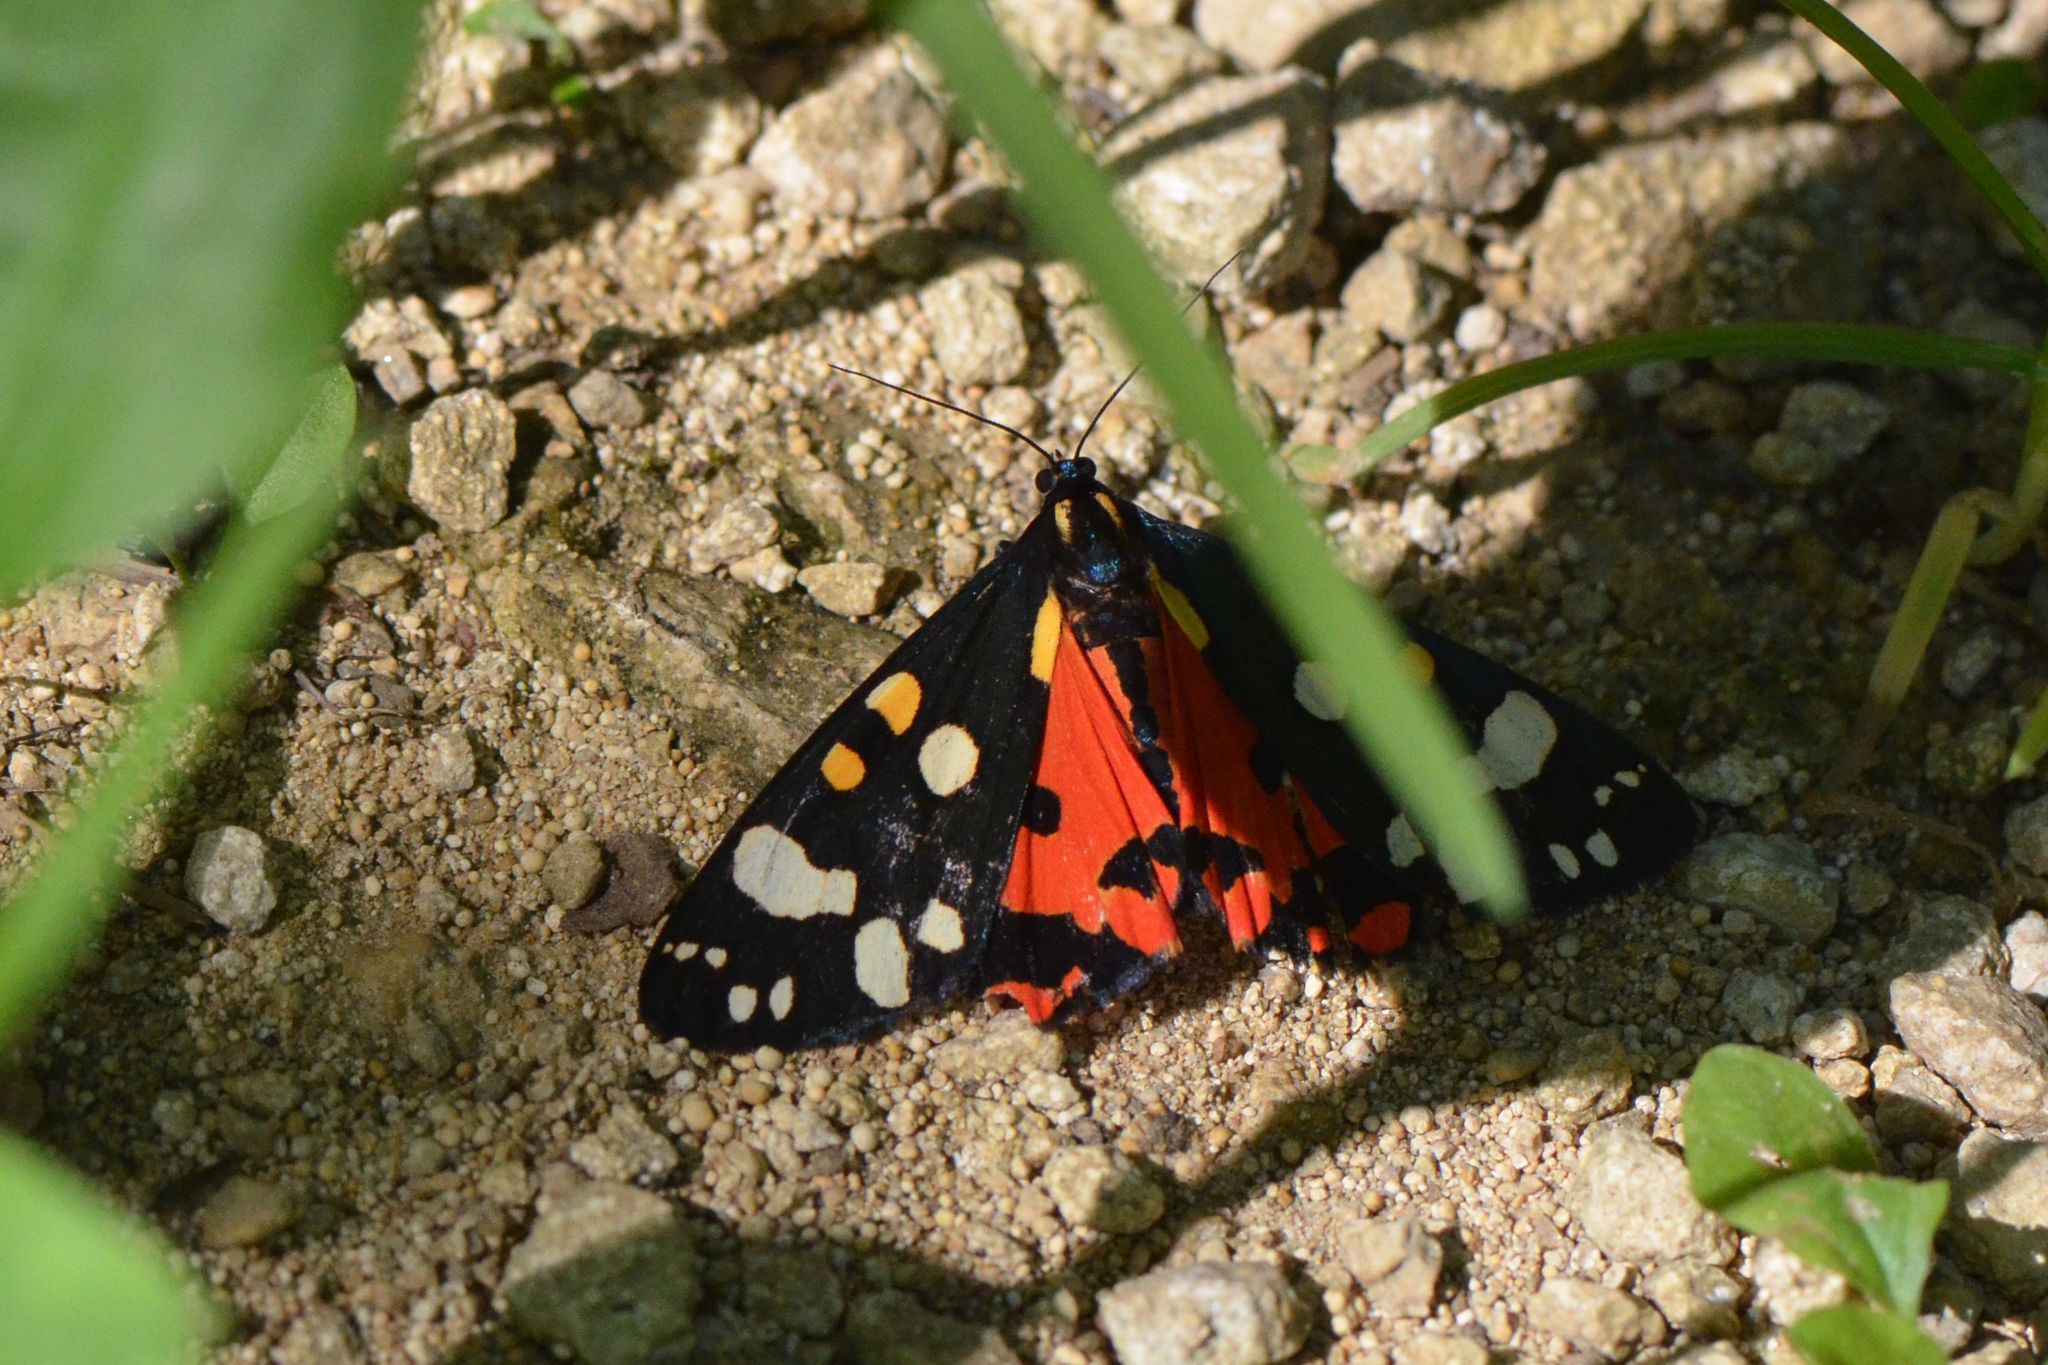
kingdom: Animalia
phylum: Arthropoda
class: Insecta
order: Lepidoptera
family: Erebidae
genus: Callimorpha
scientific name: Callimorpha dominula
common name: Scarlet tiger
